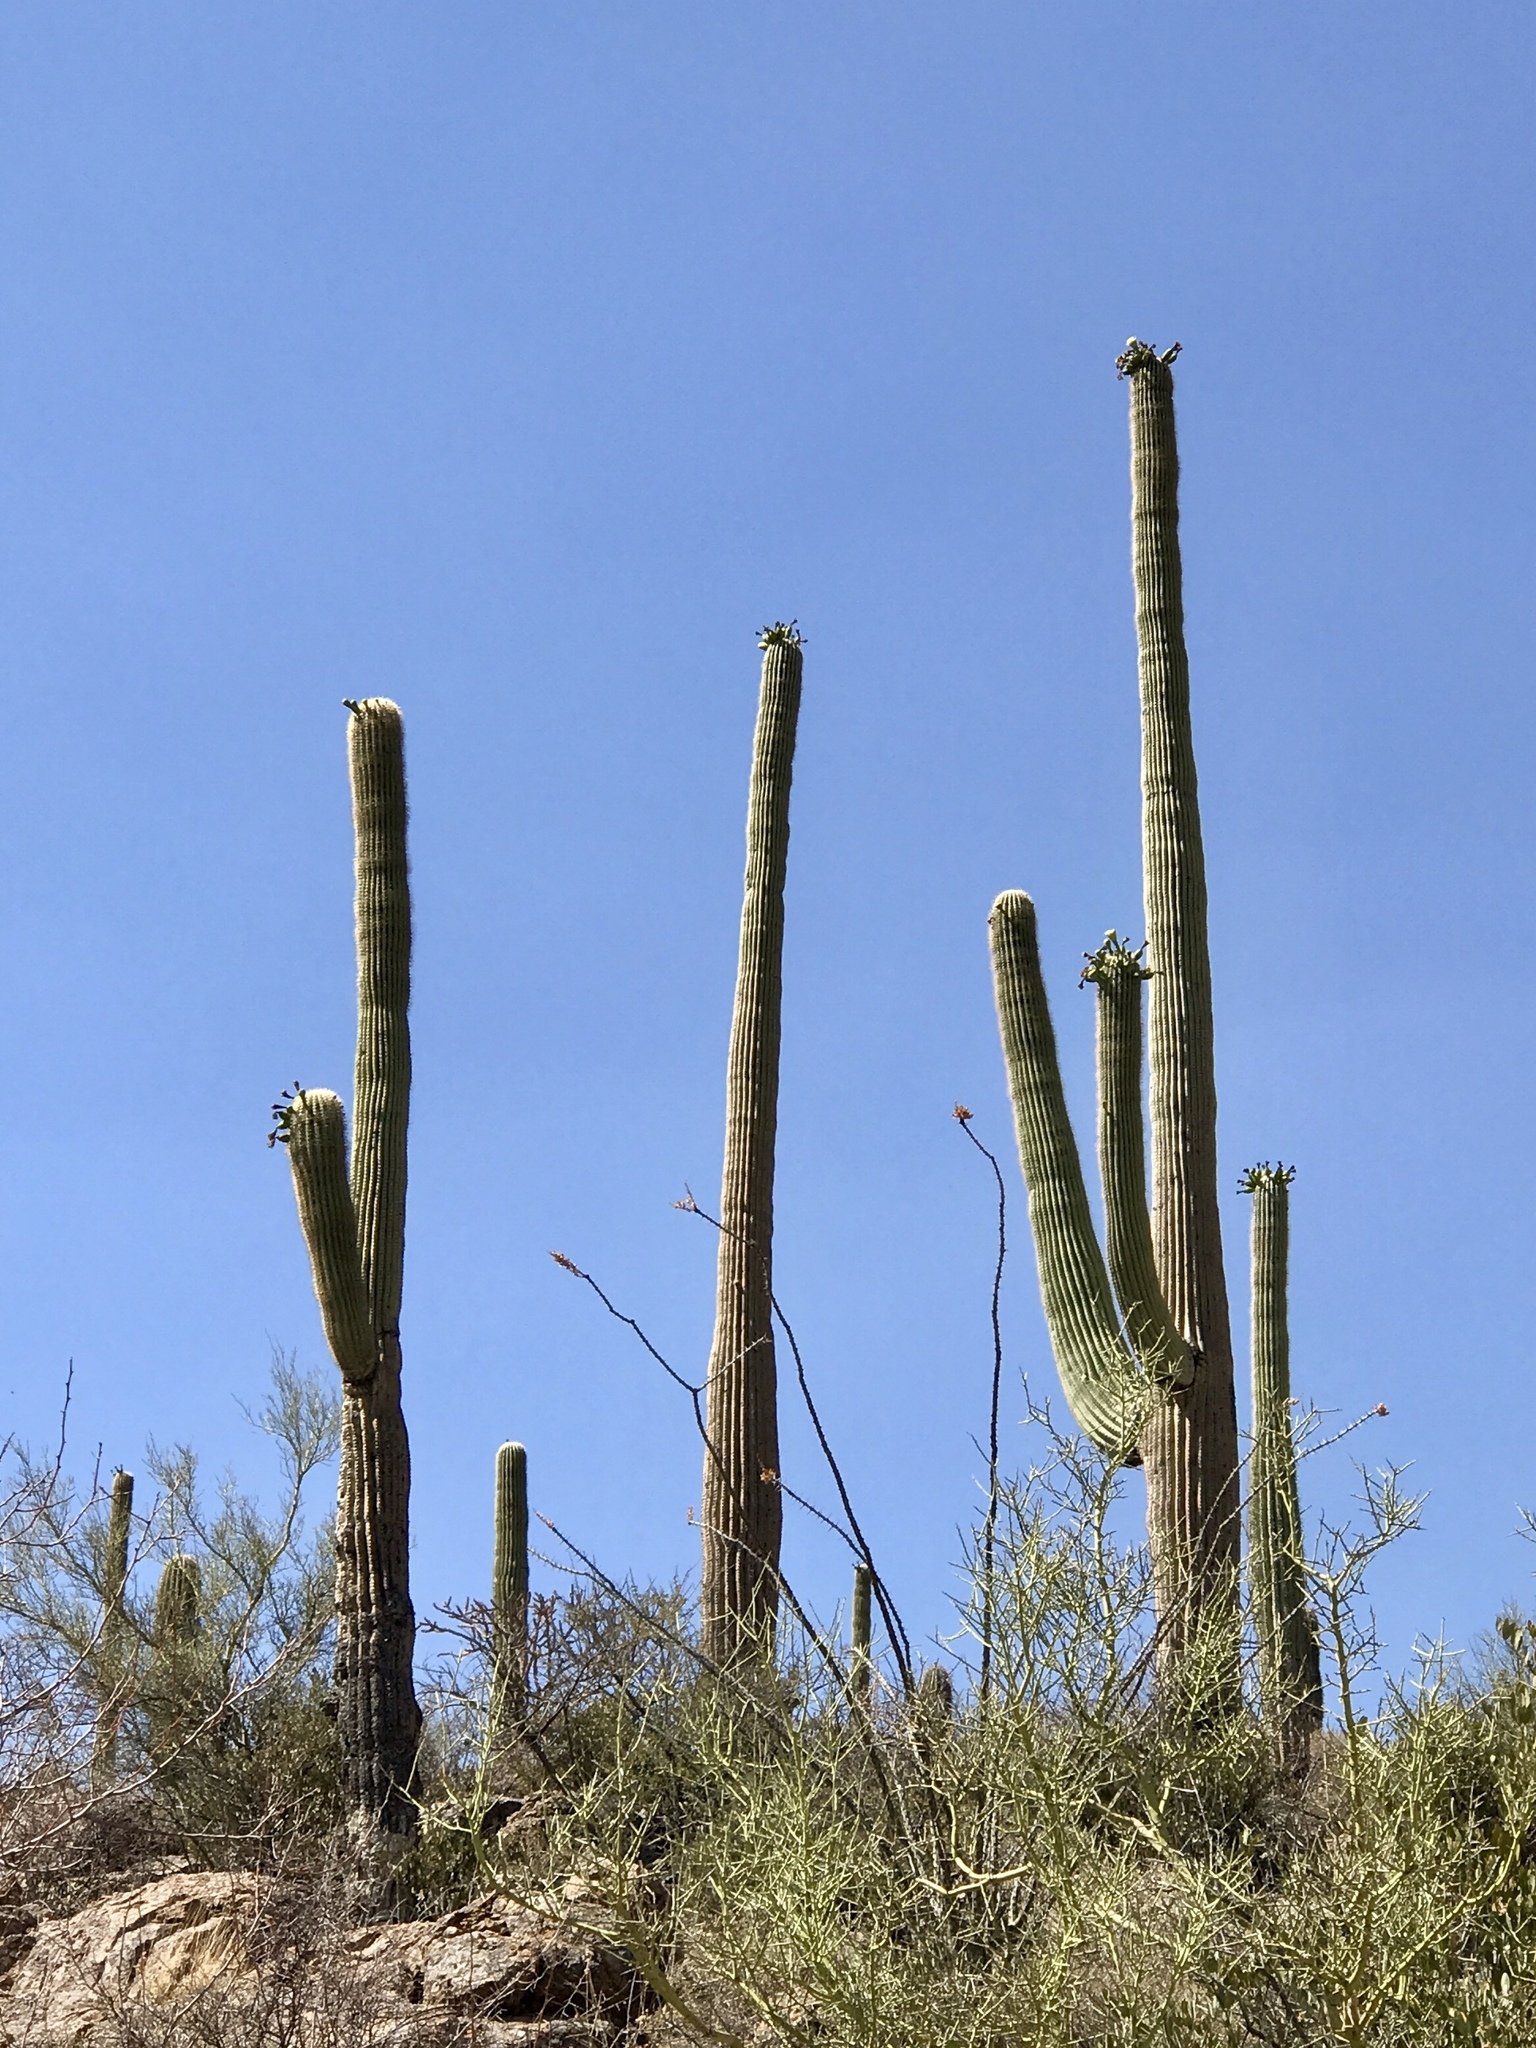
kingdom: Plantae
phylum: Tracheophyta
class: Magnoliopsida
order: Caryophyllales
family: Cactaceae
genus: Carnegiea
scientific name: Carnegiea gigantea
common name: Saguaro
